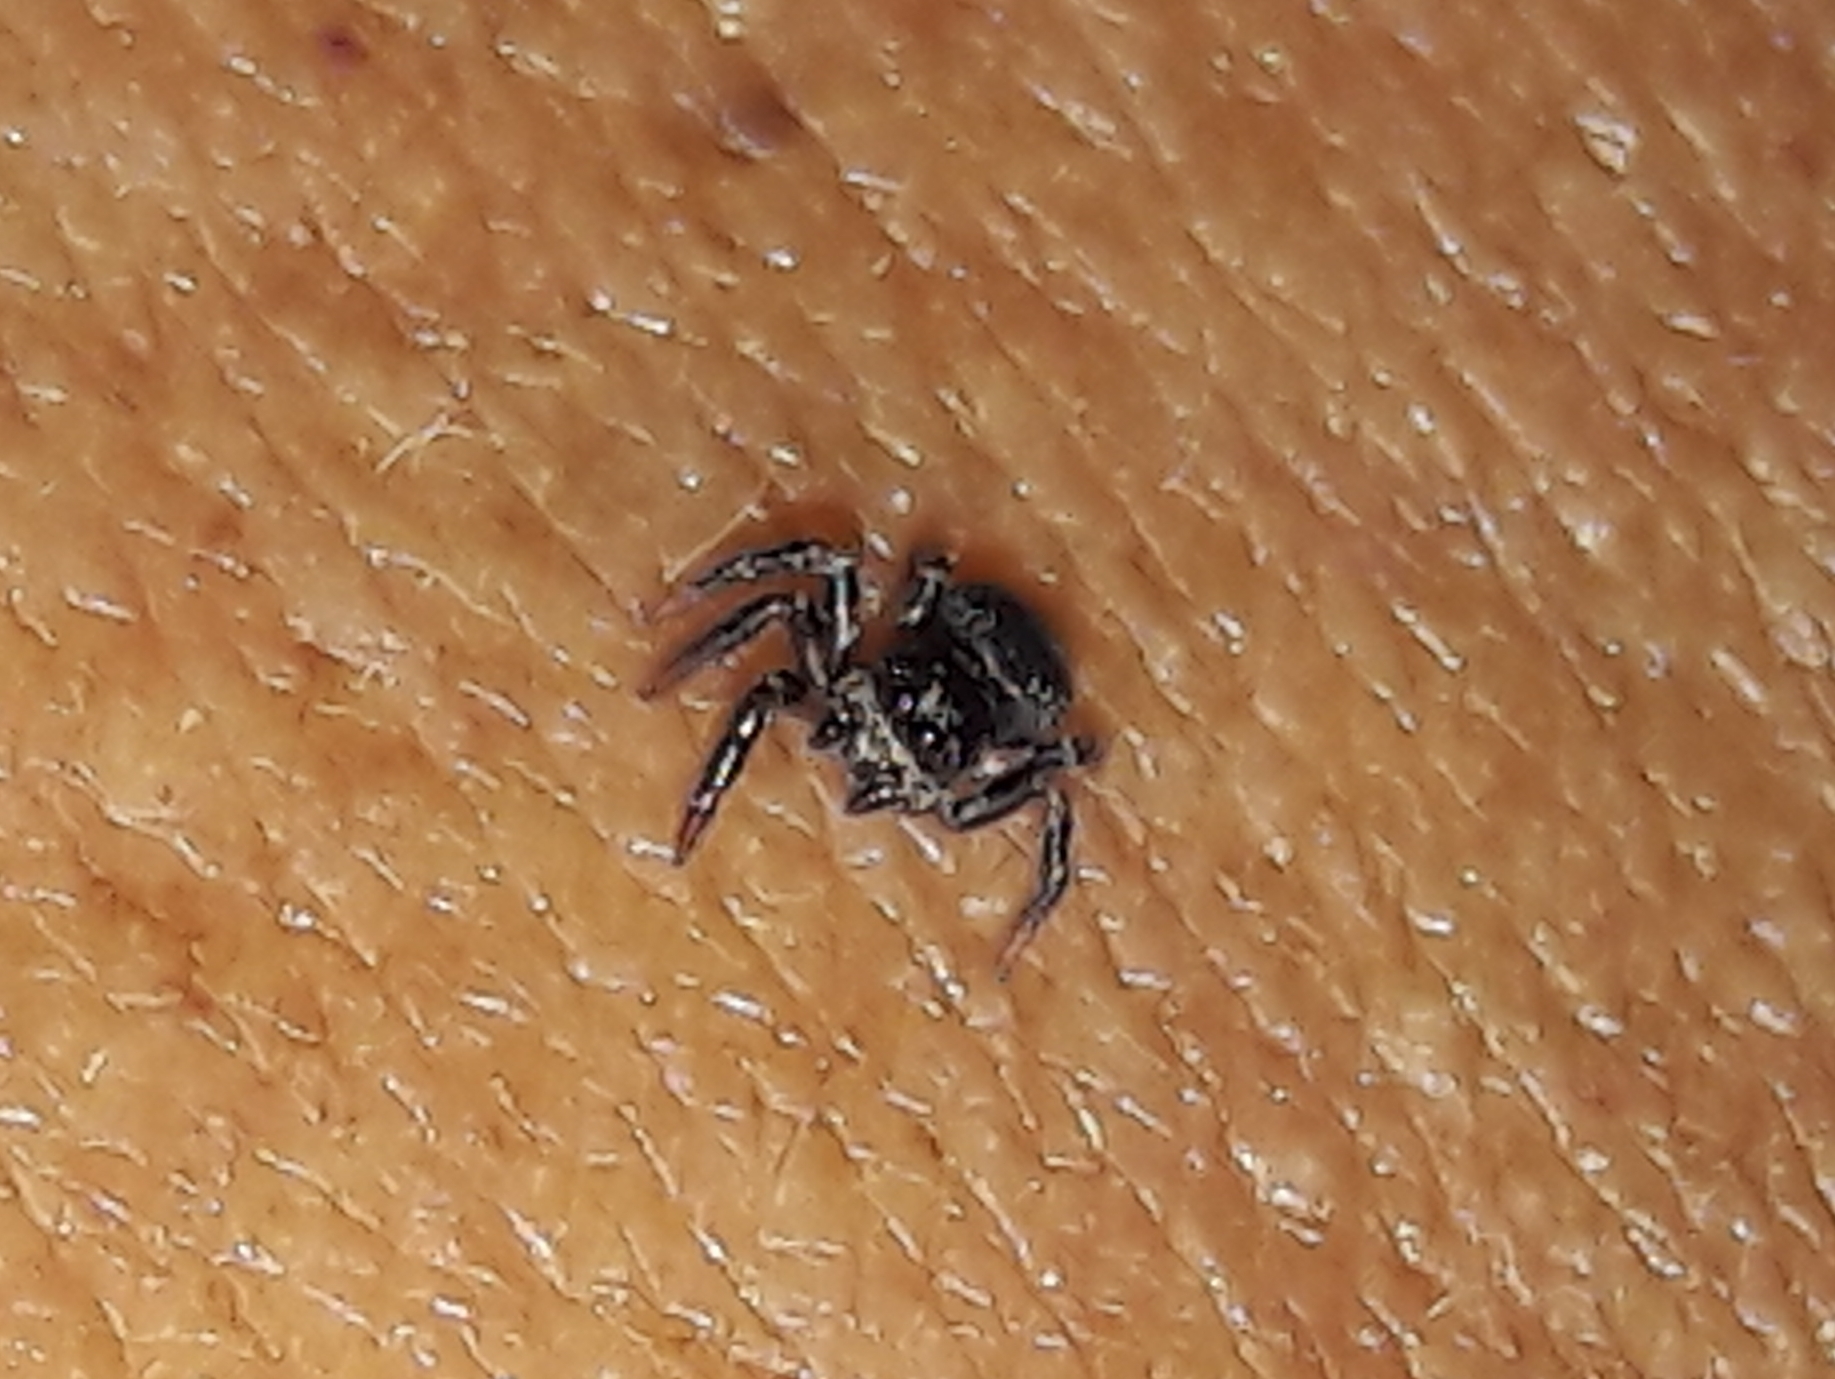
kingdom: Animalia
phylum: Arthropoda
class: Arachnida
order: Araneae
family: Salticidae
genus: Corythalia
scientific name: Corythalia conferta
